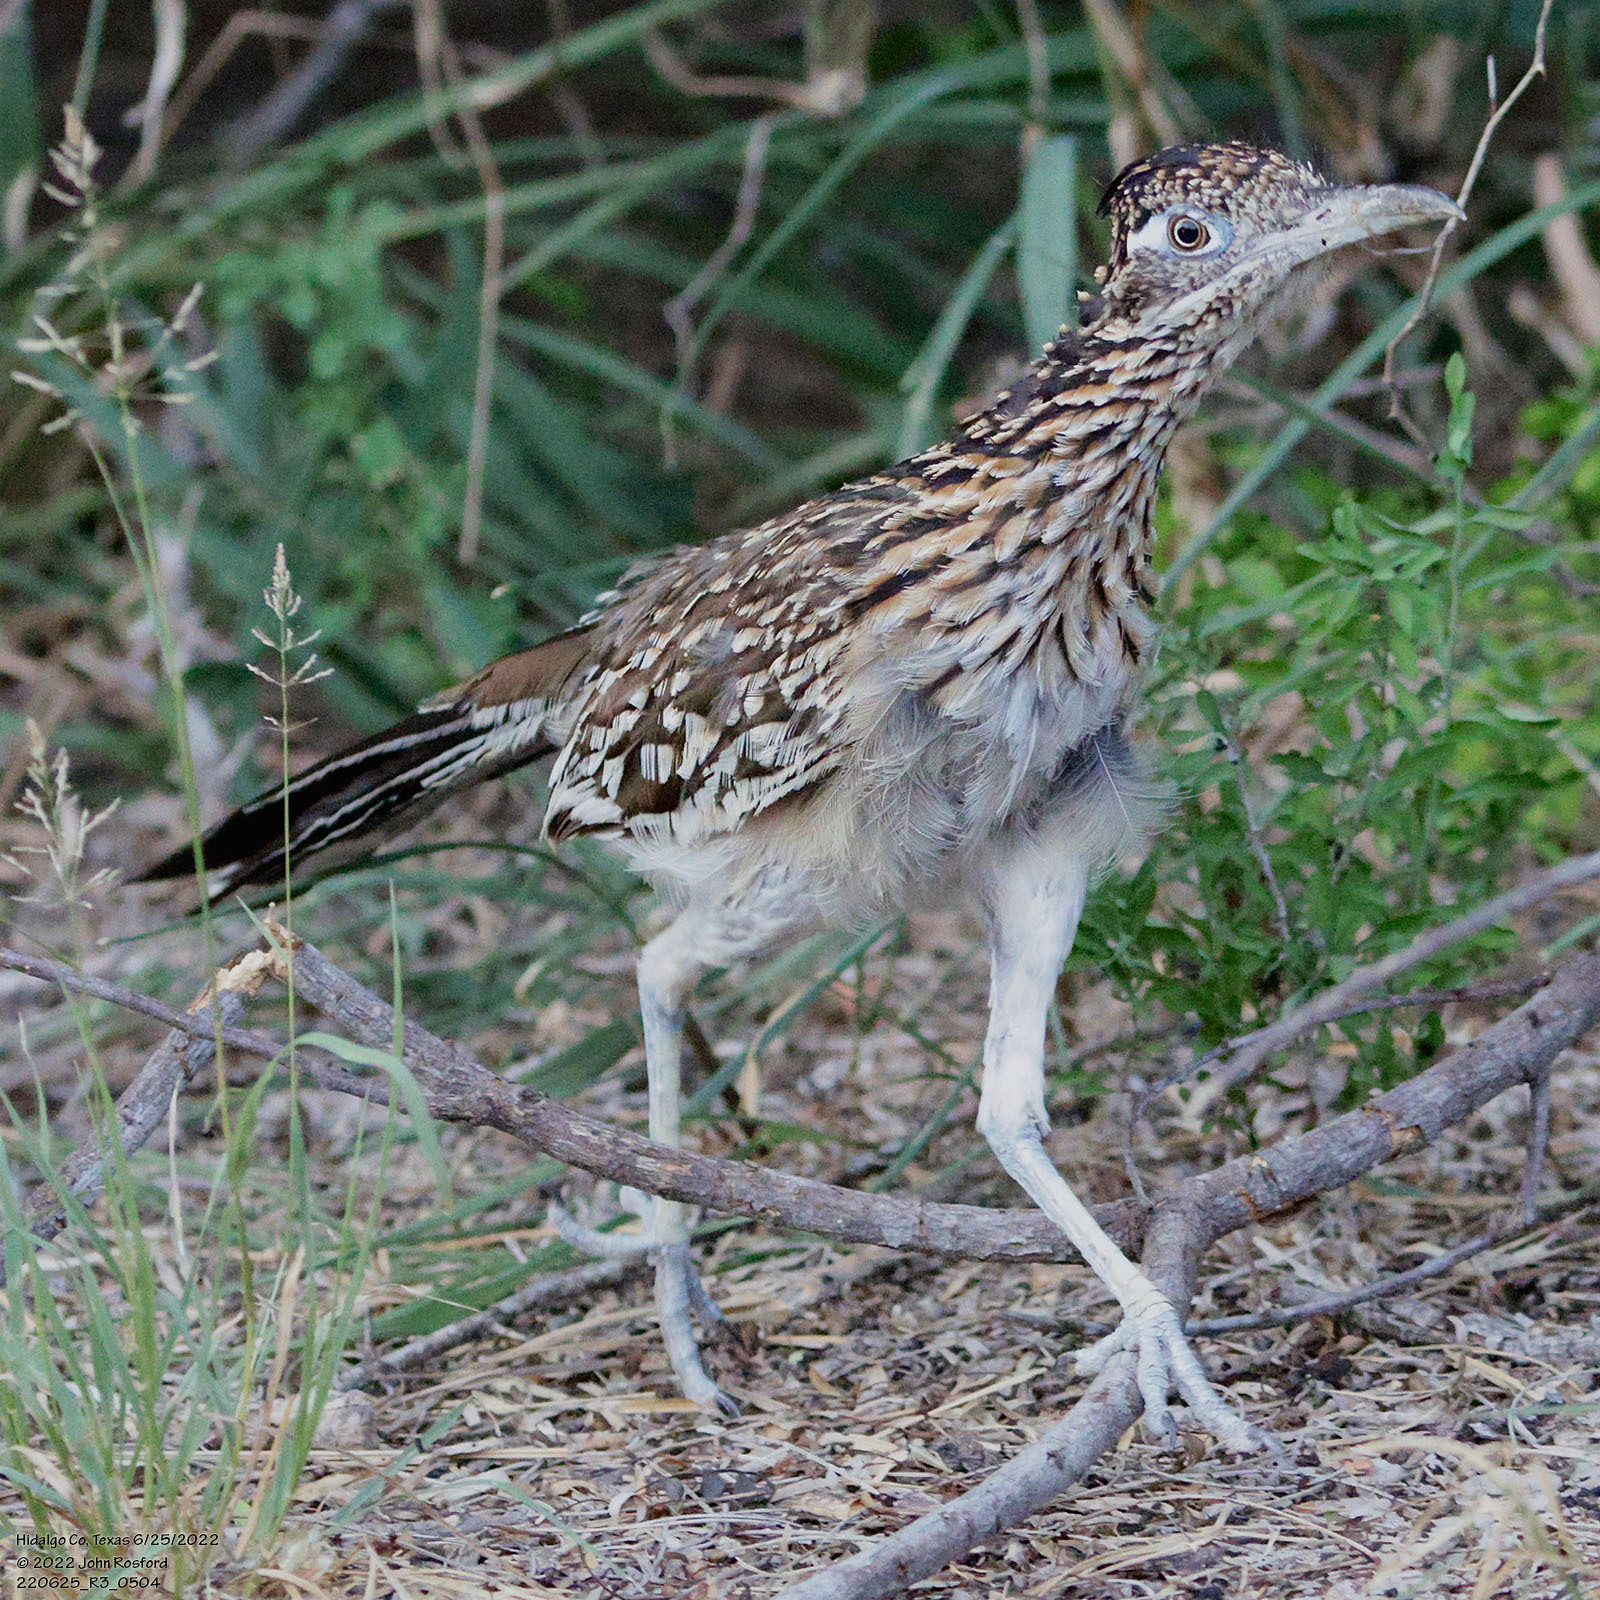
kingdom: Animalia
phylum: Chordata
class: Aves
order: Cuculiformes
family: Cuculidae
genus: Geococcyx
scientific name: Geococcyx californianus
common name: Greater roadrunner
